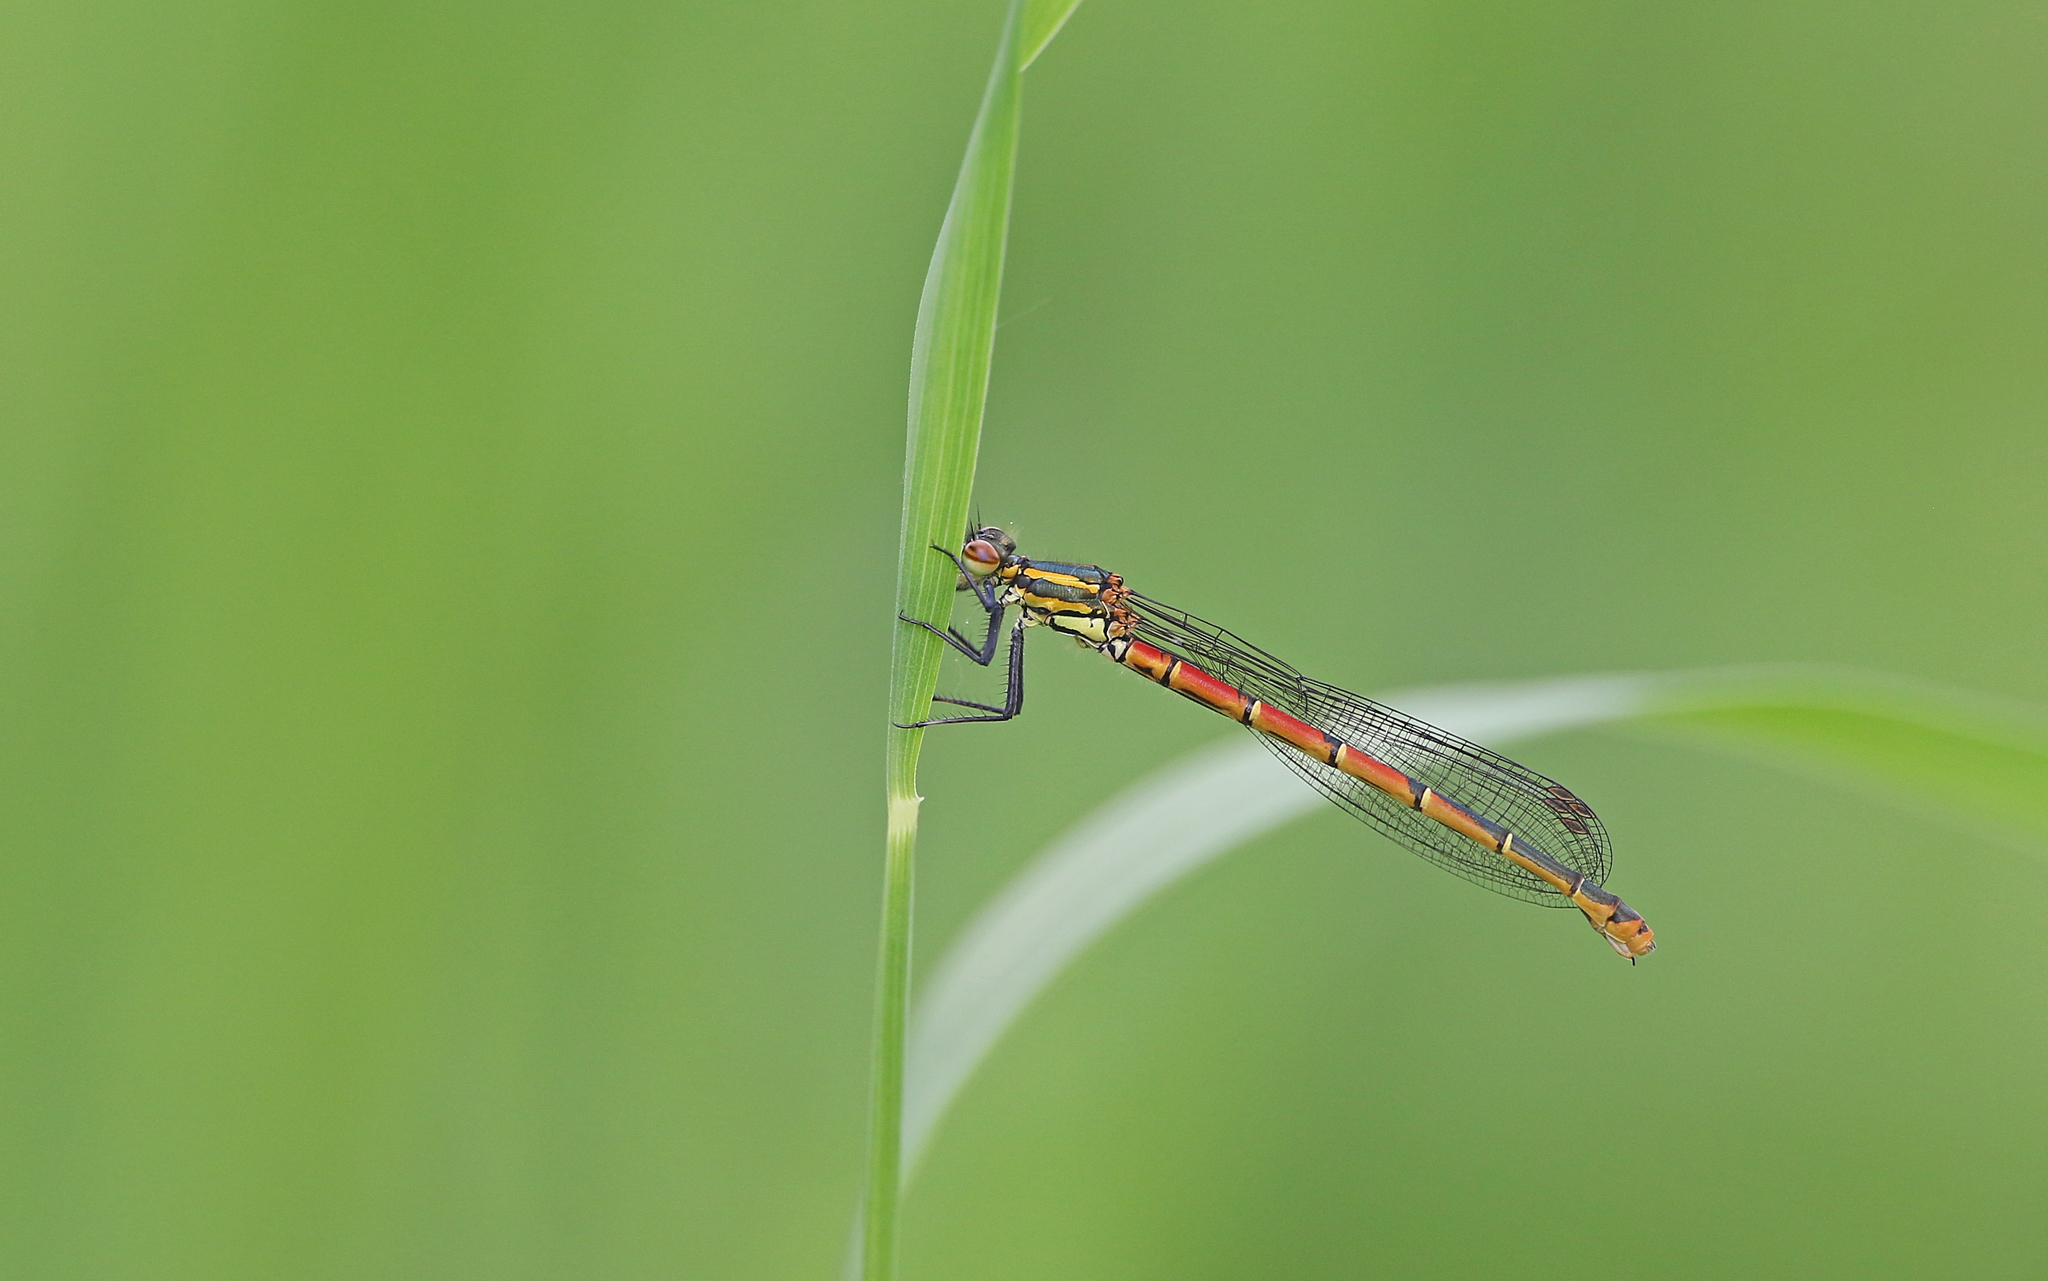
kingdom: Animalia
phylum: Arthropoda
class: Insecta
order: Odonata
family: Coenagrionidae
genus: Pyrrhosoma
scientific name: Pyrrhosoma nymphula
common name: Large red damsel
